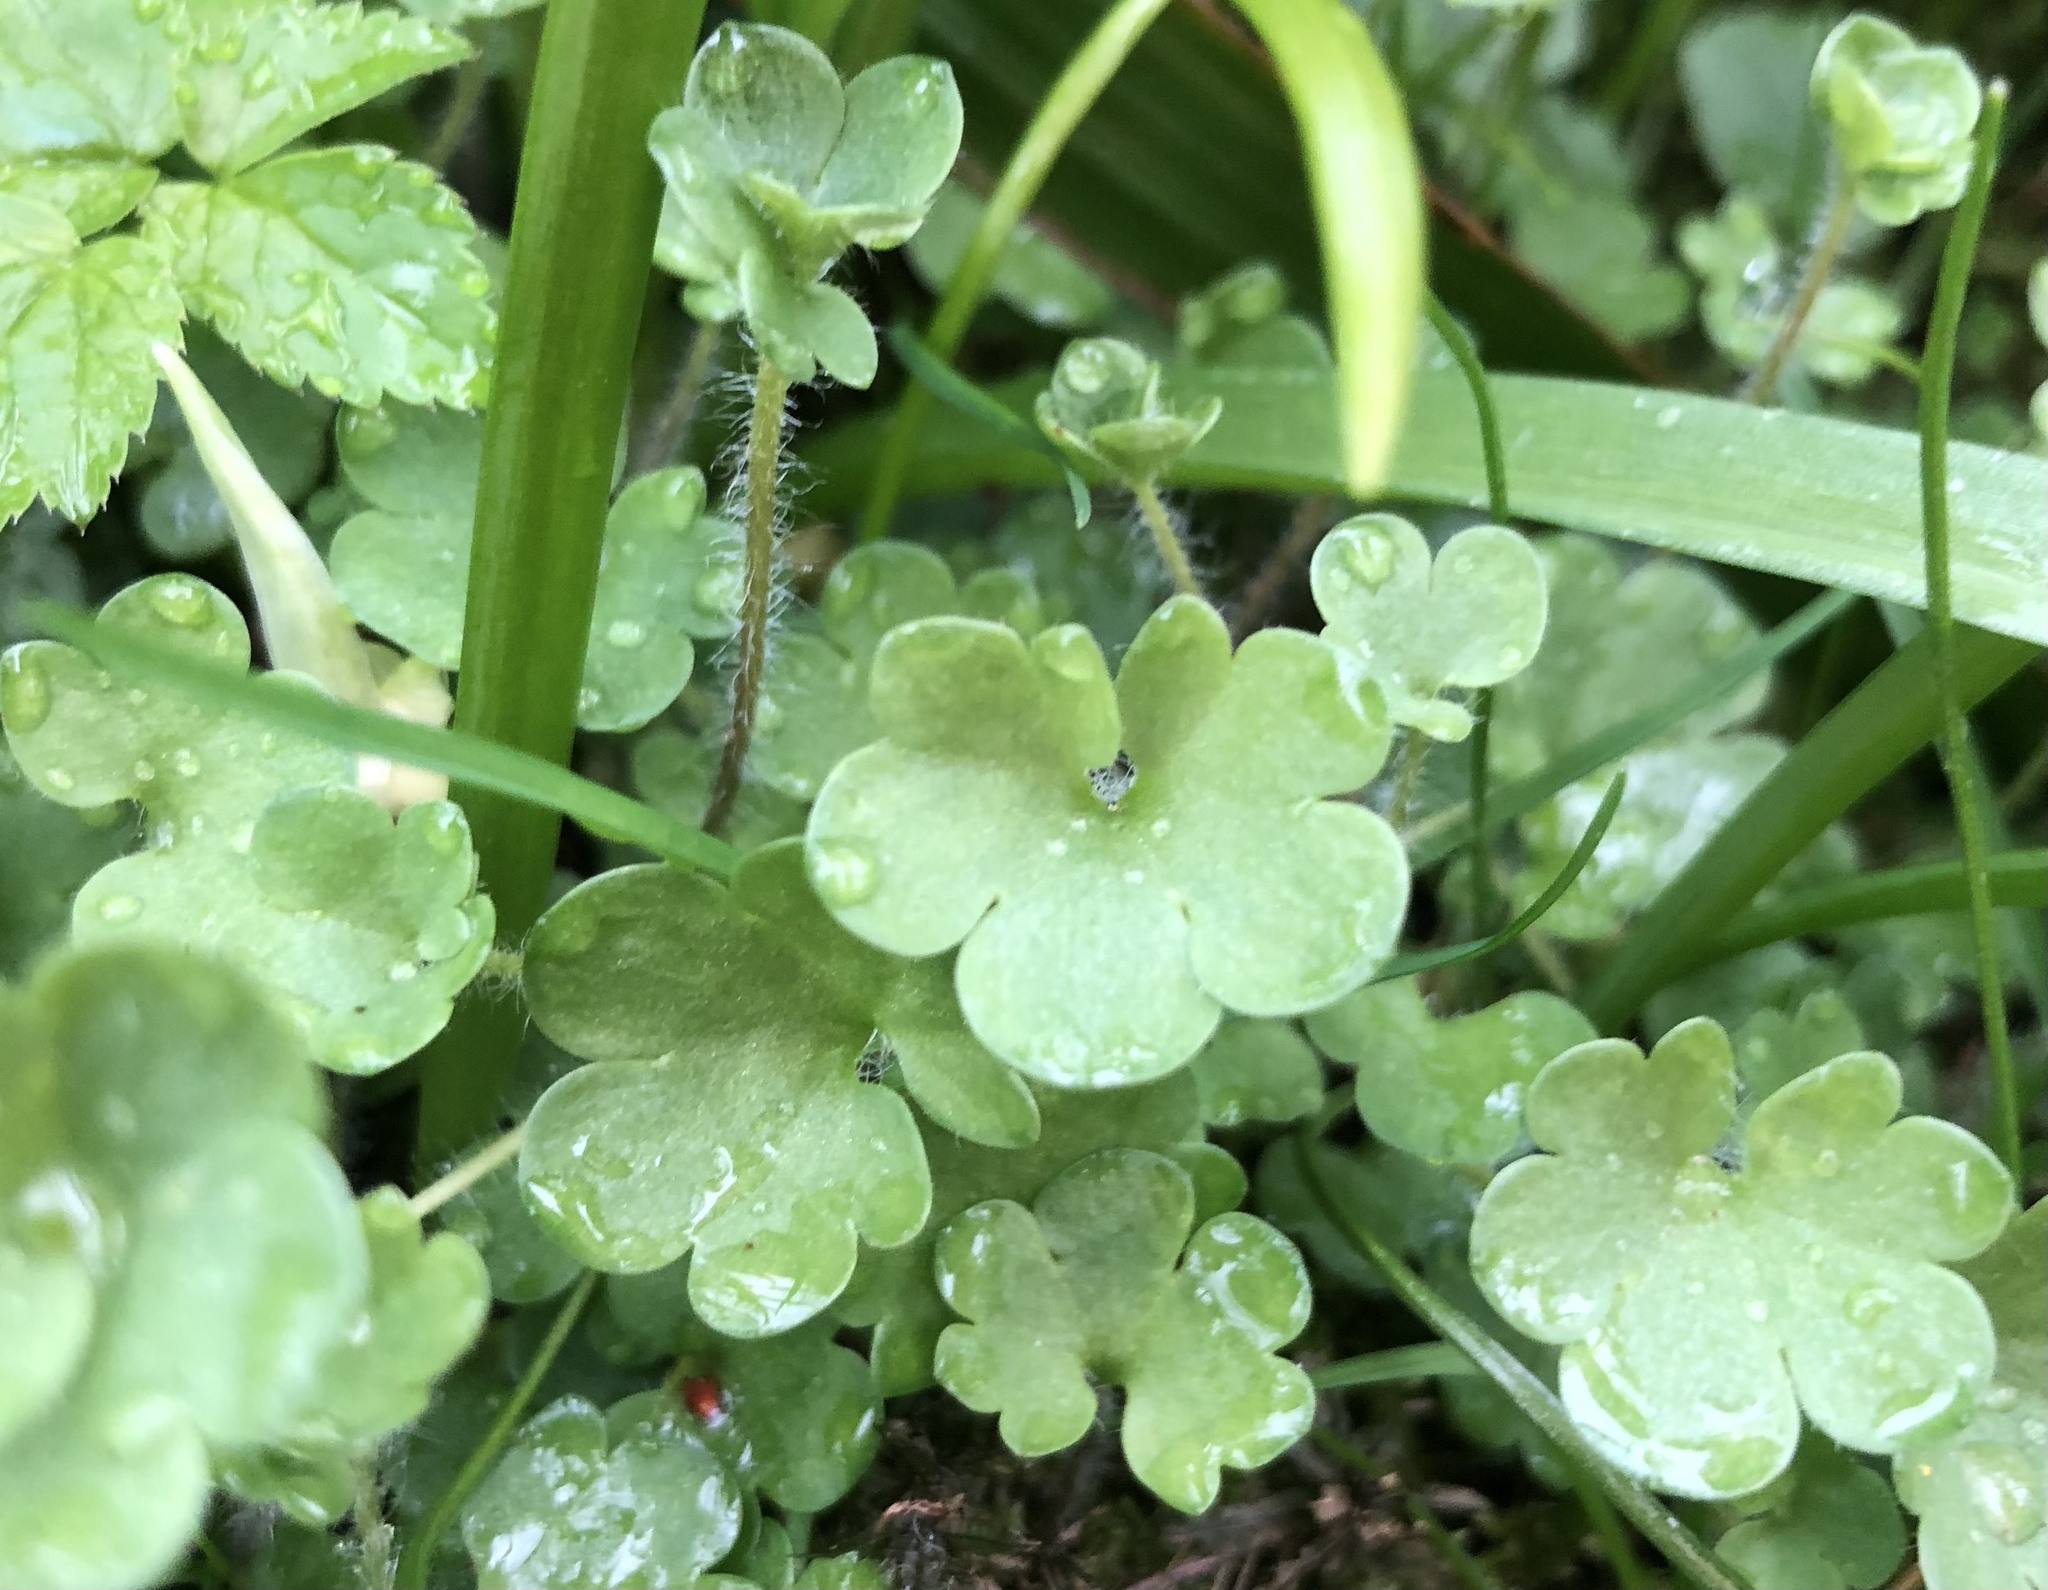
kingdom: Plantae
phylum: Tracheophyta
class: Magnoliopsida
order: Saxifragales
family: Saxifragaceae
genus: Saxifraga
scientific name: Saxifraga granulata
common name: Meadow saxifrage
